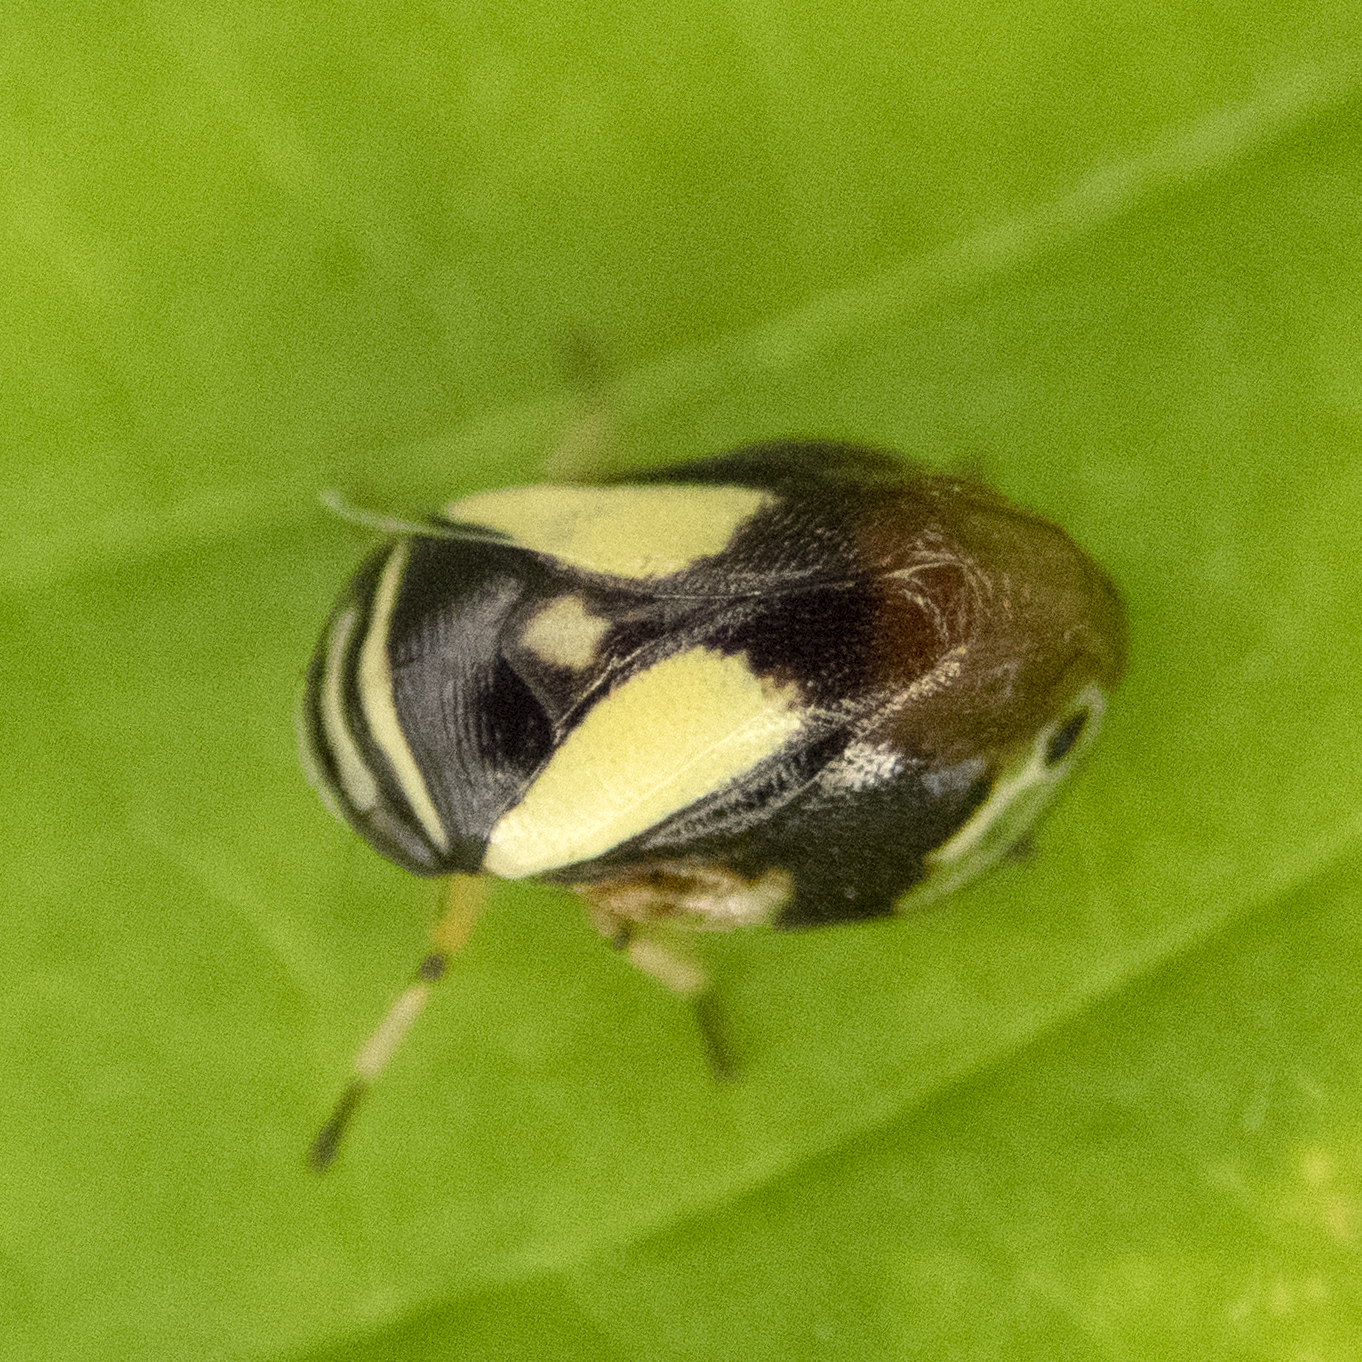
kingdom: Animalia
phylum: Arthropoda
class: Insecta
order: Hemiptera
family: Clastopteridae
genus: Clastoptera
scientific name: Clastoptera proteus
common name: Dogwood spittlebug
